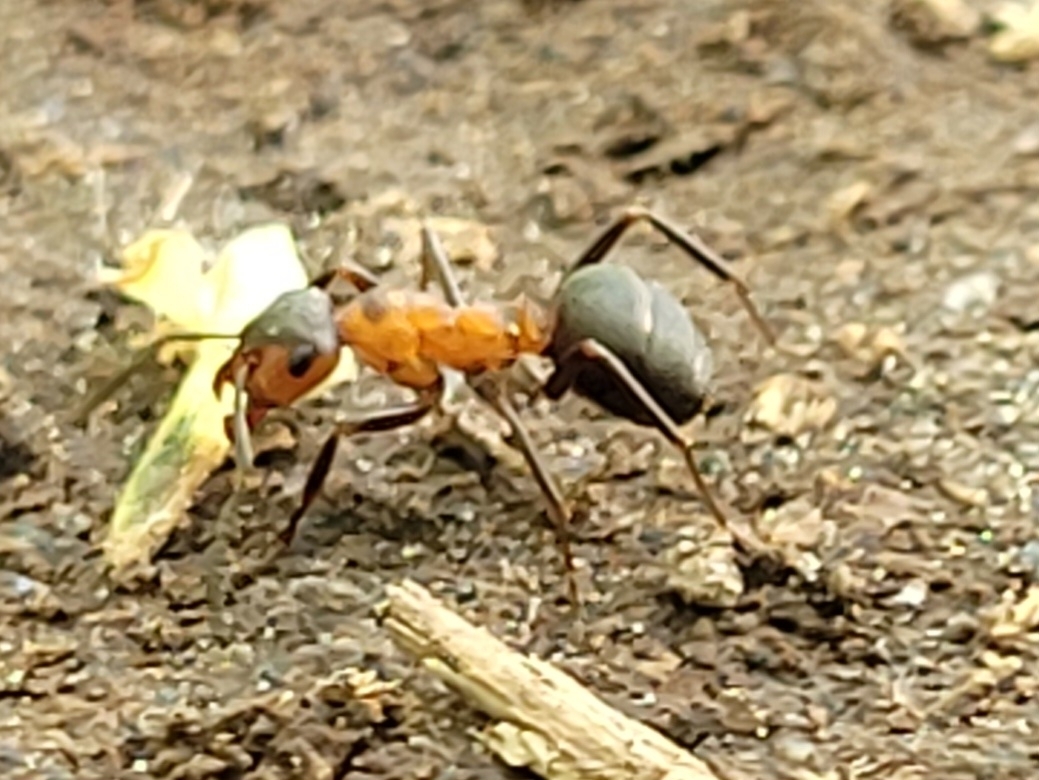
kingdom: Animalia
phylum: Arthropoda
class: Insecta
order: Hymenoptera
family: Formicidae
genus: Formica
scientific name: Formica
